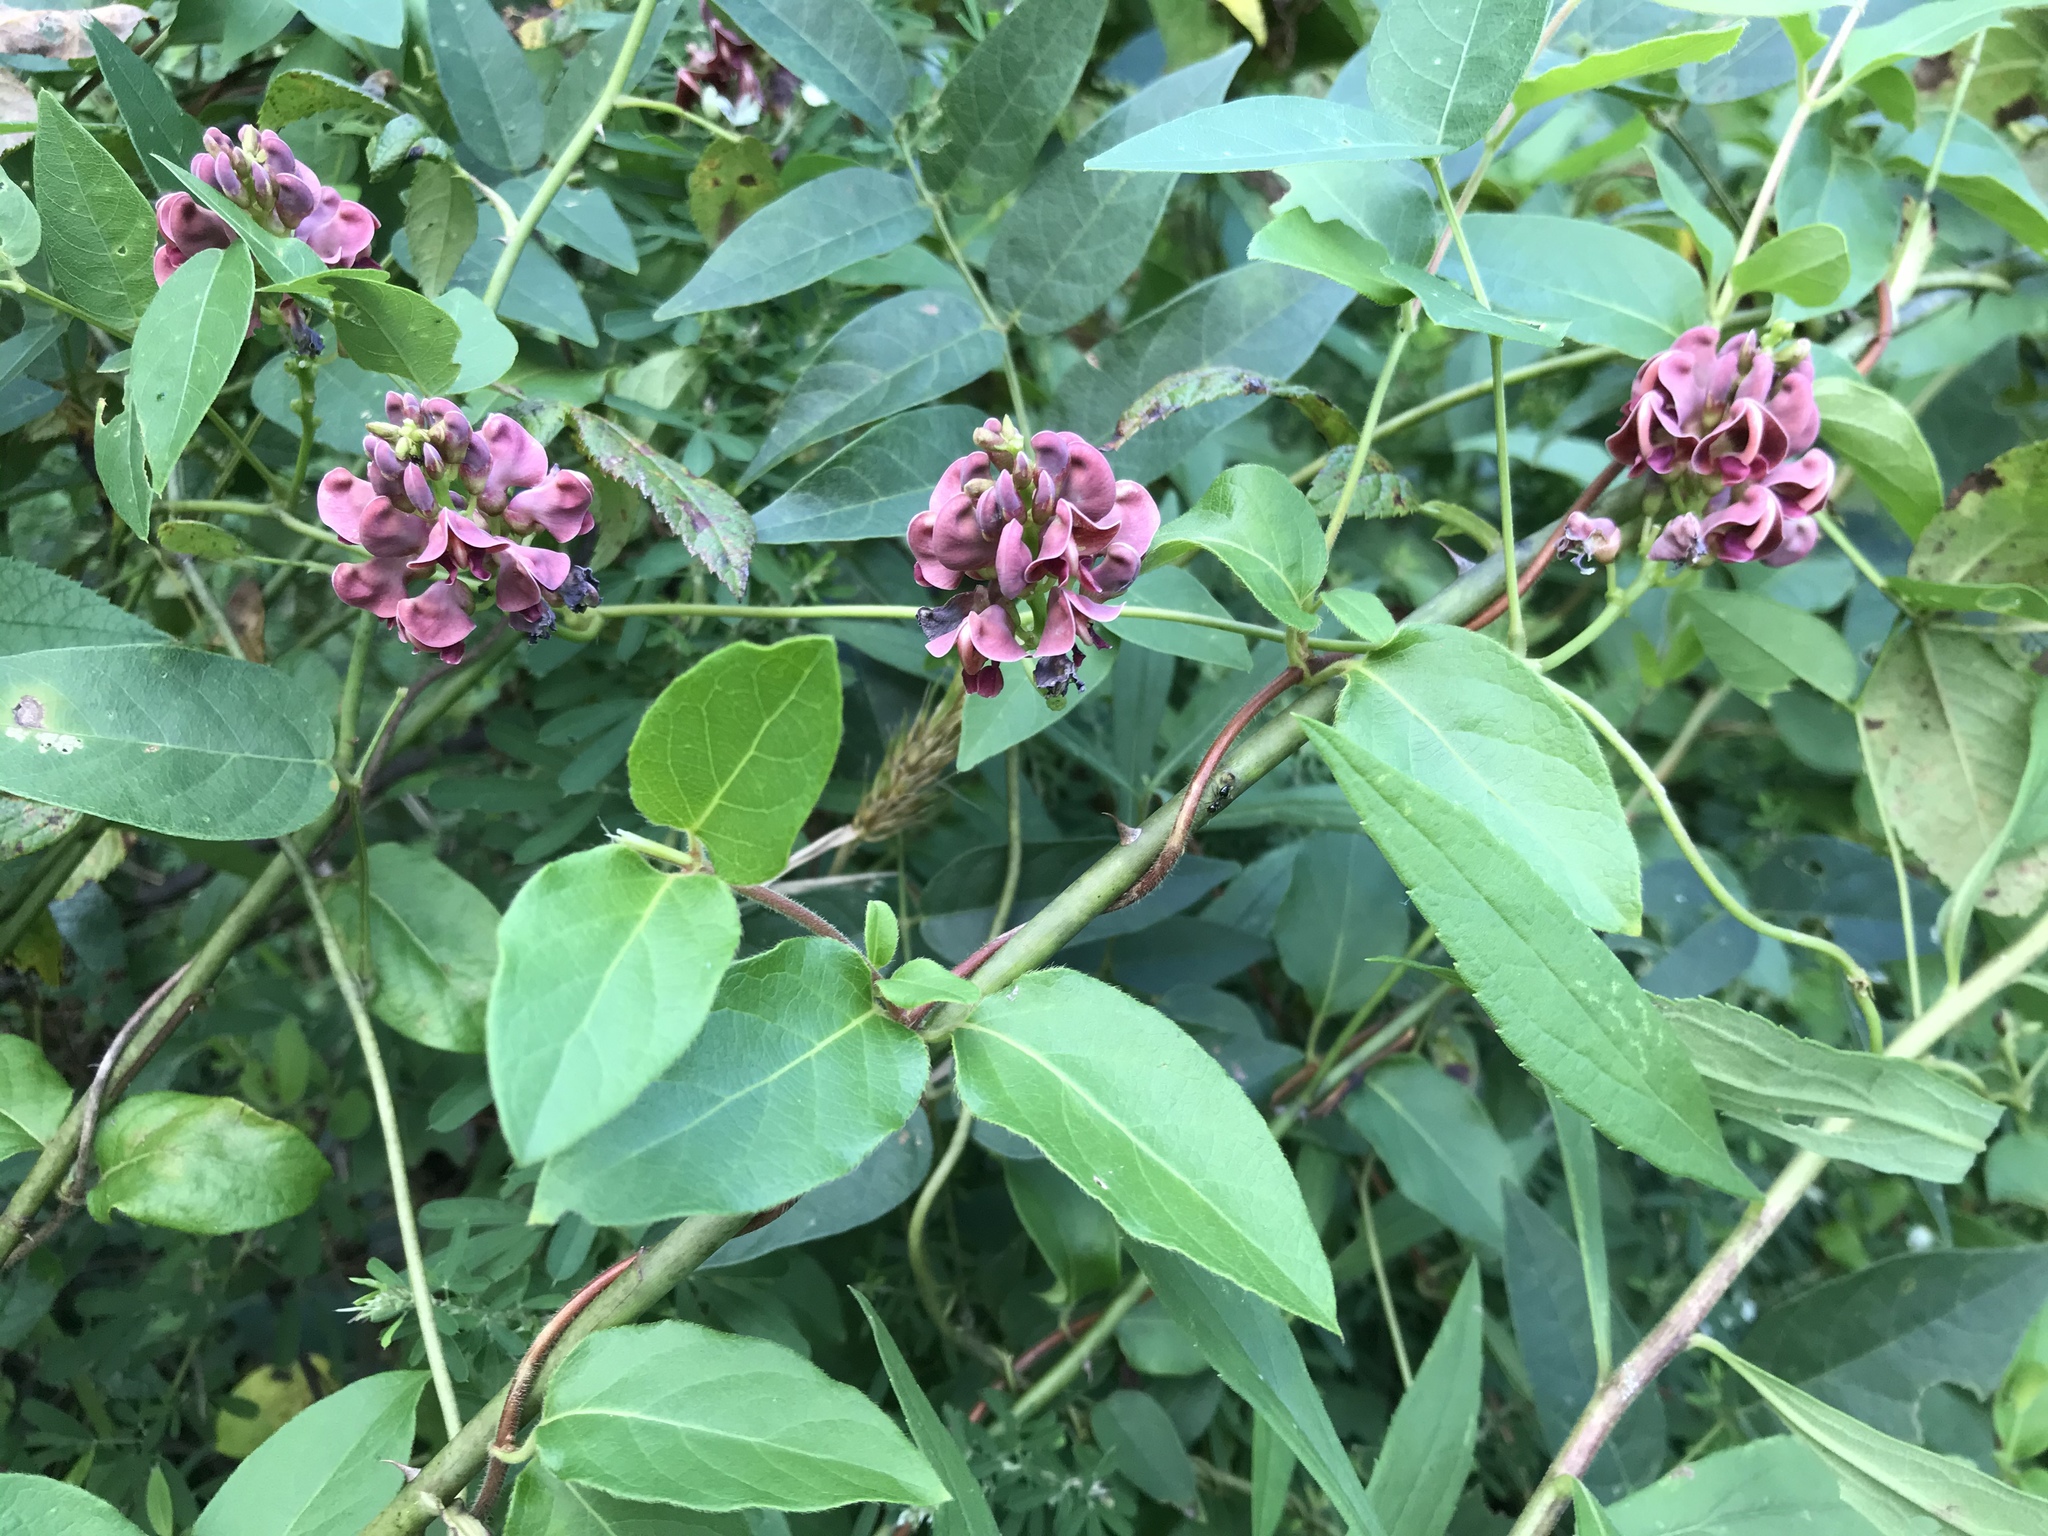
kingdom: Plantae
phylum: Tracheophyta
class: Magnoliopsida
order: Fabales
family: Fabaceae
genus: Apios
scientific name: Apios americana
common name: American potato-bean
